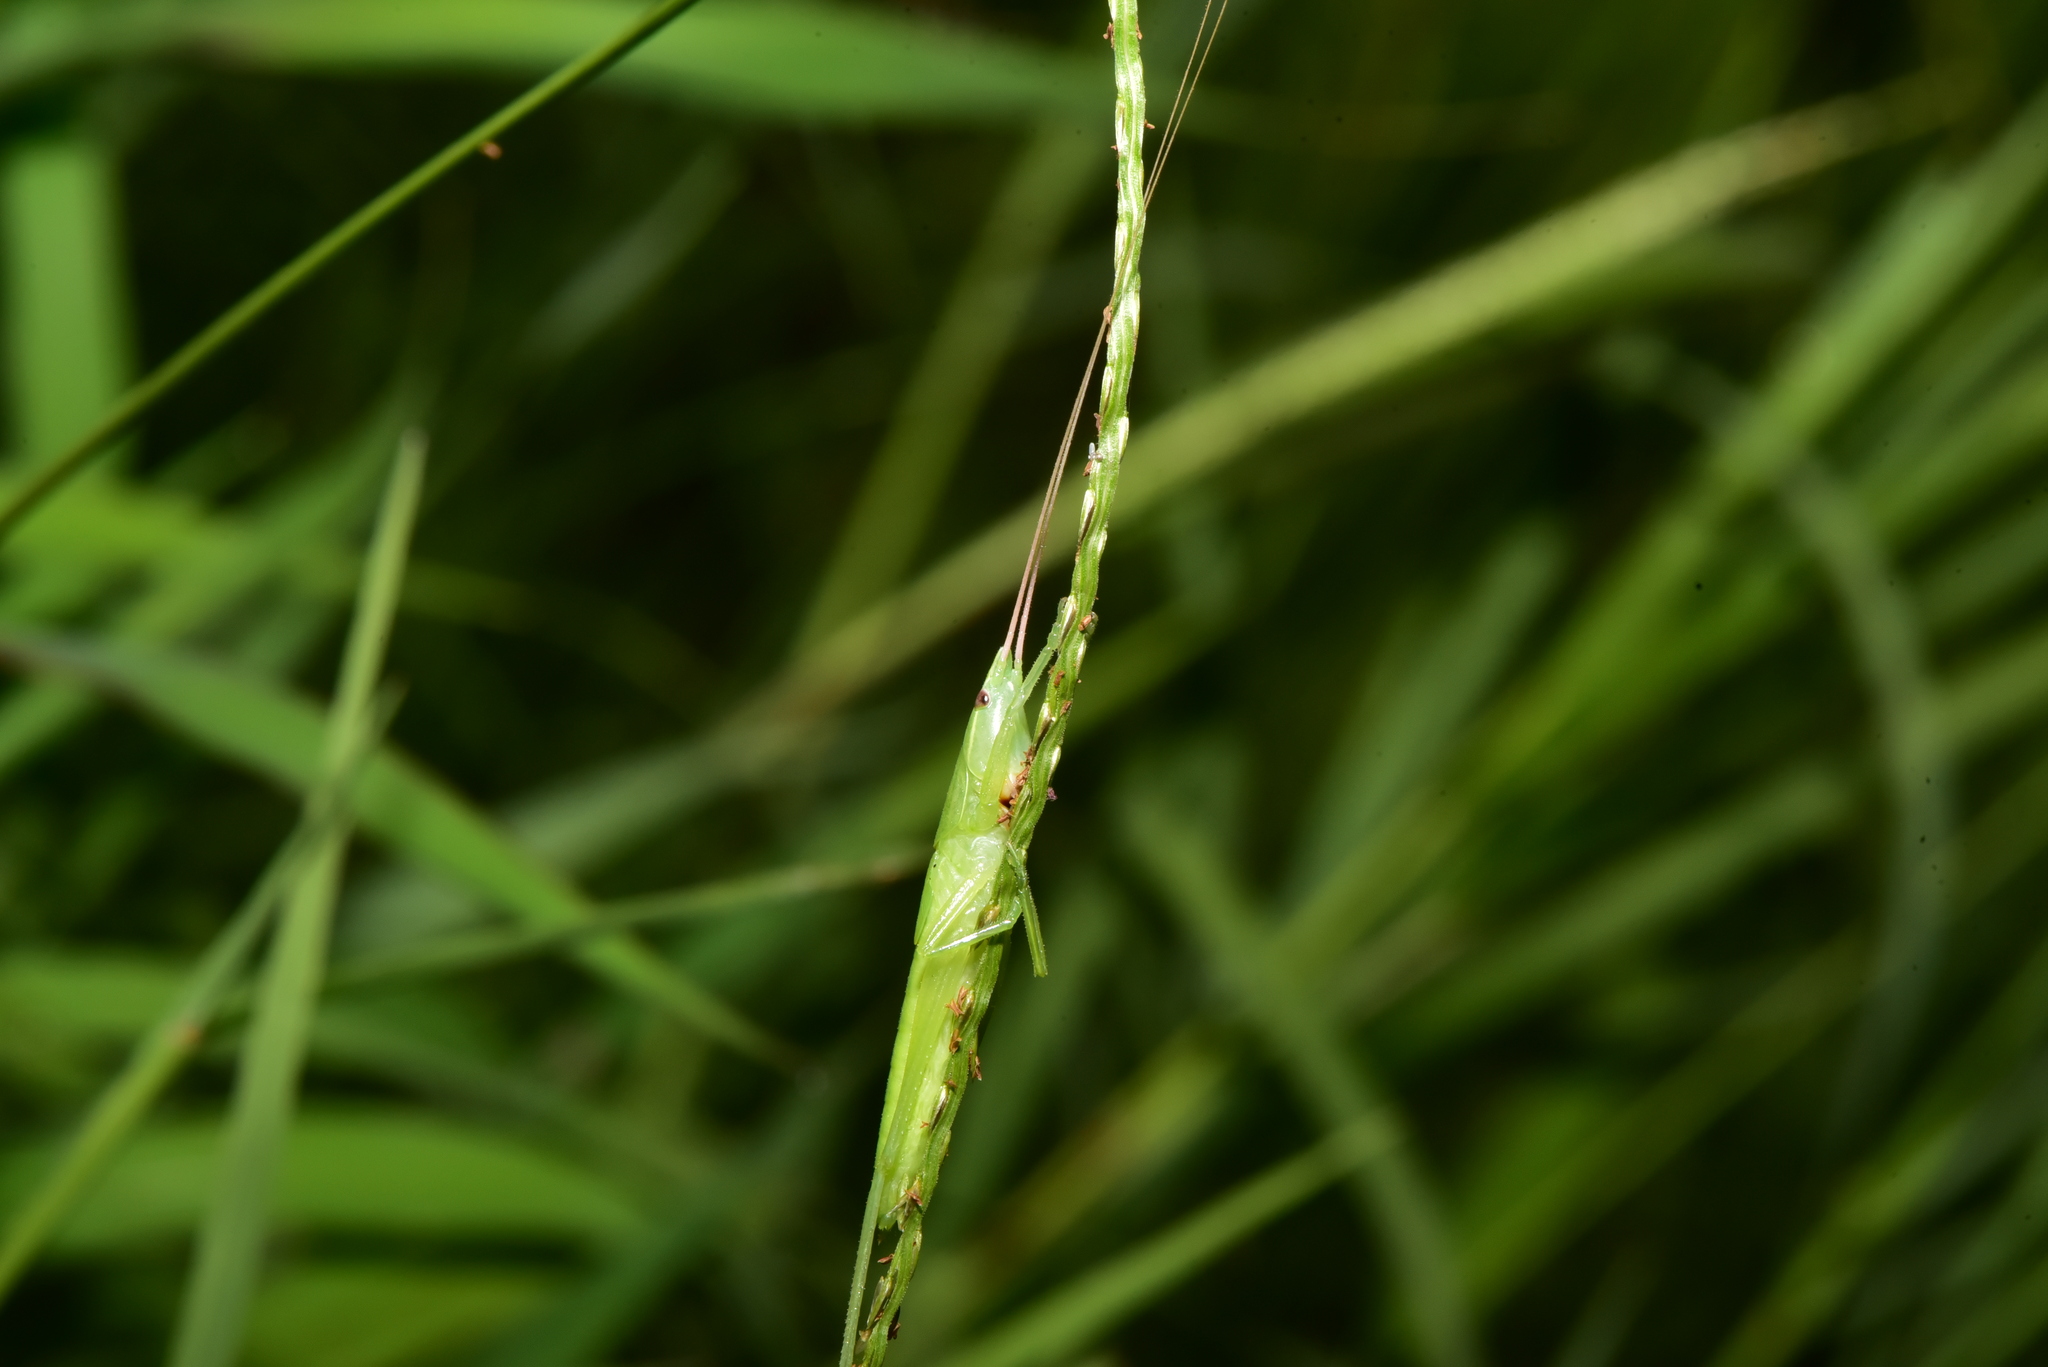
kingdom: Animalia
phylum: Arthropoda
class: Insecta
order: Orthoptera
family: Tettigoniidae
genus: Euconocephalus
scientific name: Euconocephalus nasutus
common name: Grasshopper
